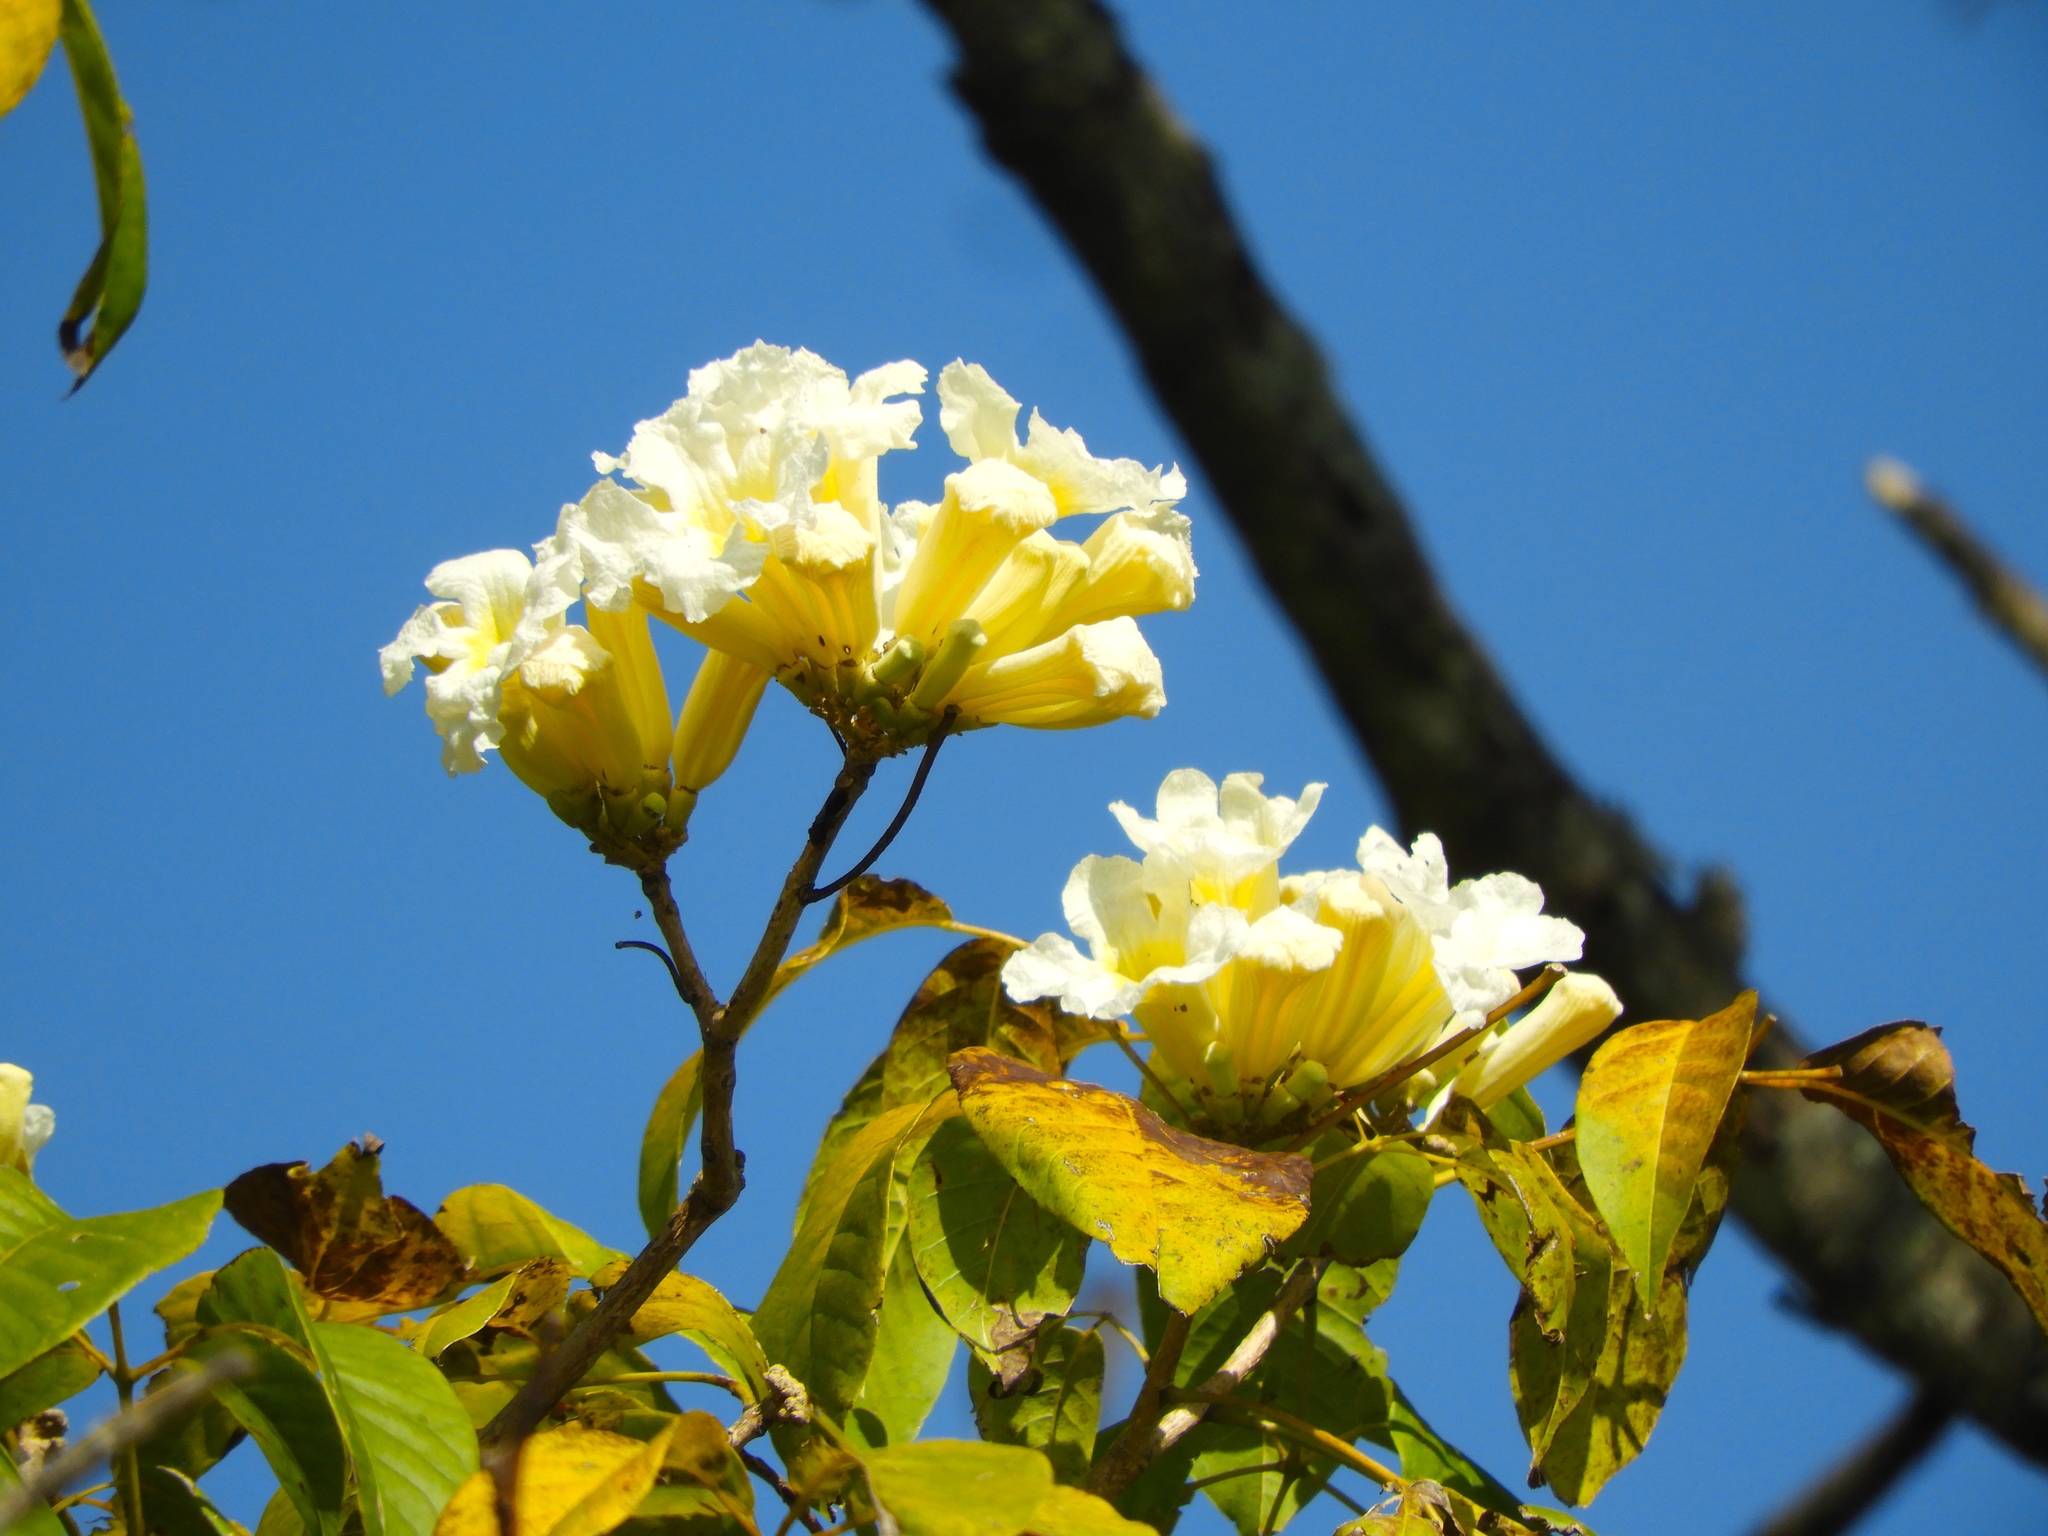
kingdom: Plantae
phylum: Tracheophyta
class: Magnoliopsida
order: Lamiales
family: Bignoniaceae
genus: Handroanthus
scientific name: Handroanthus impetiginosum
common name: Pink trumpet tree
